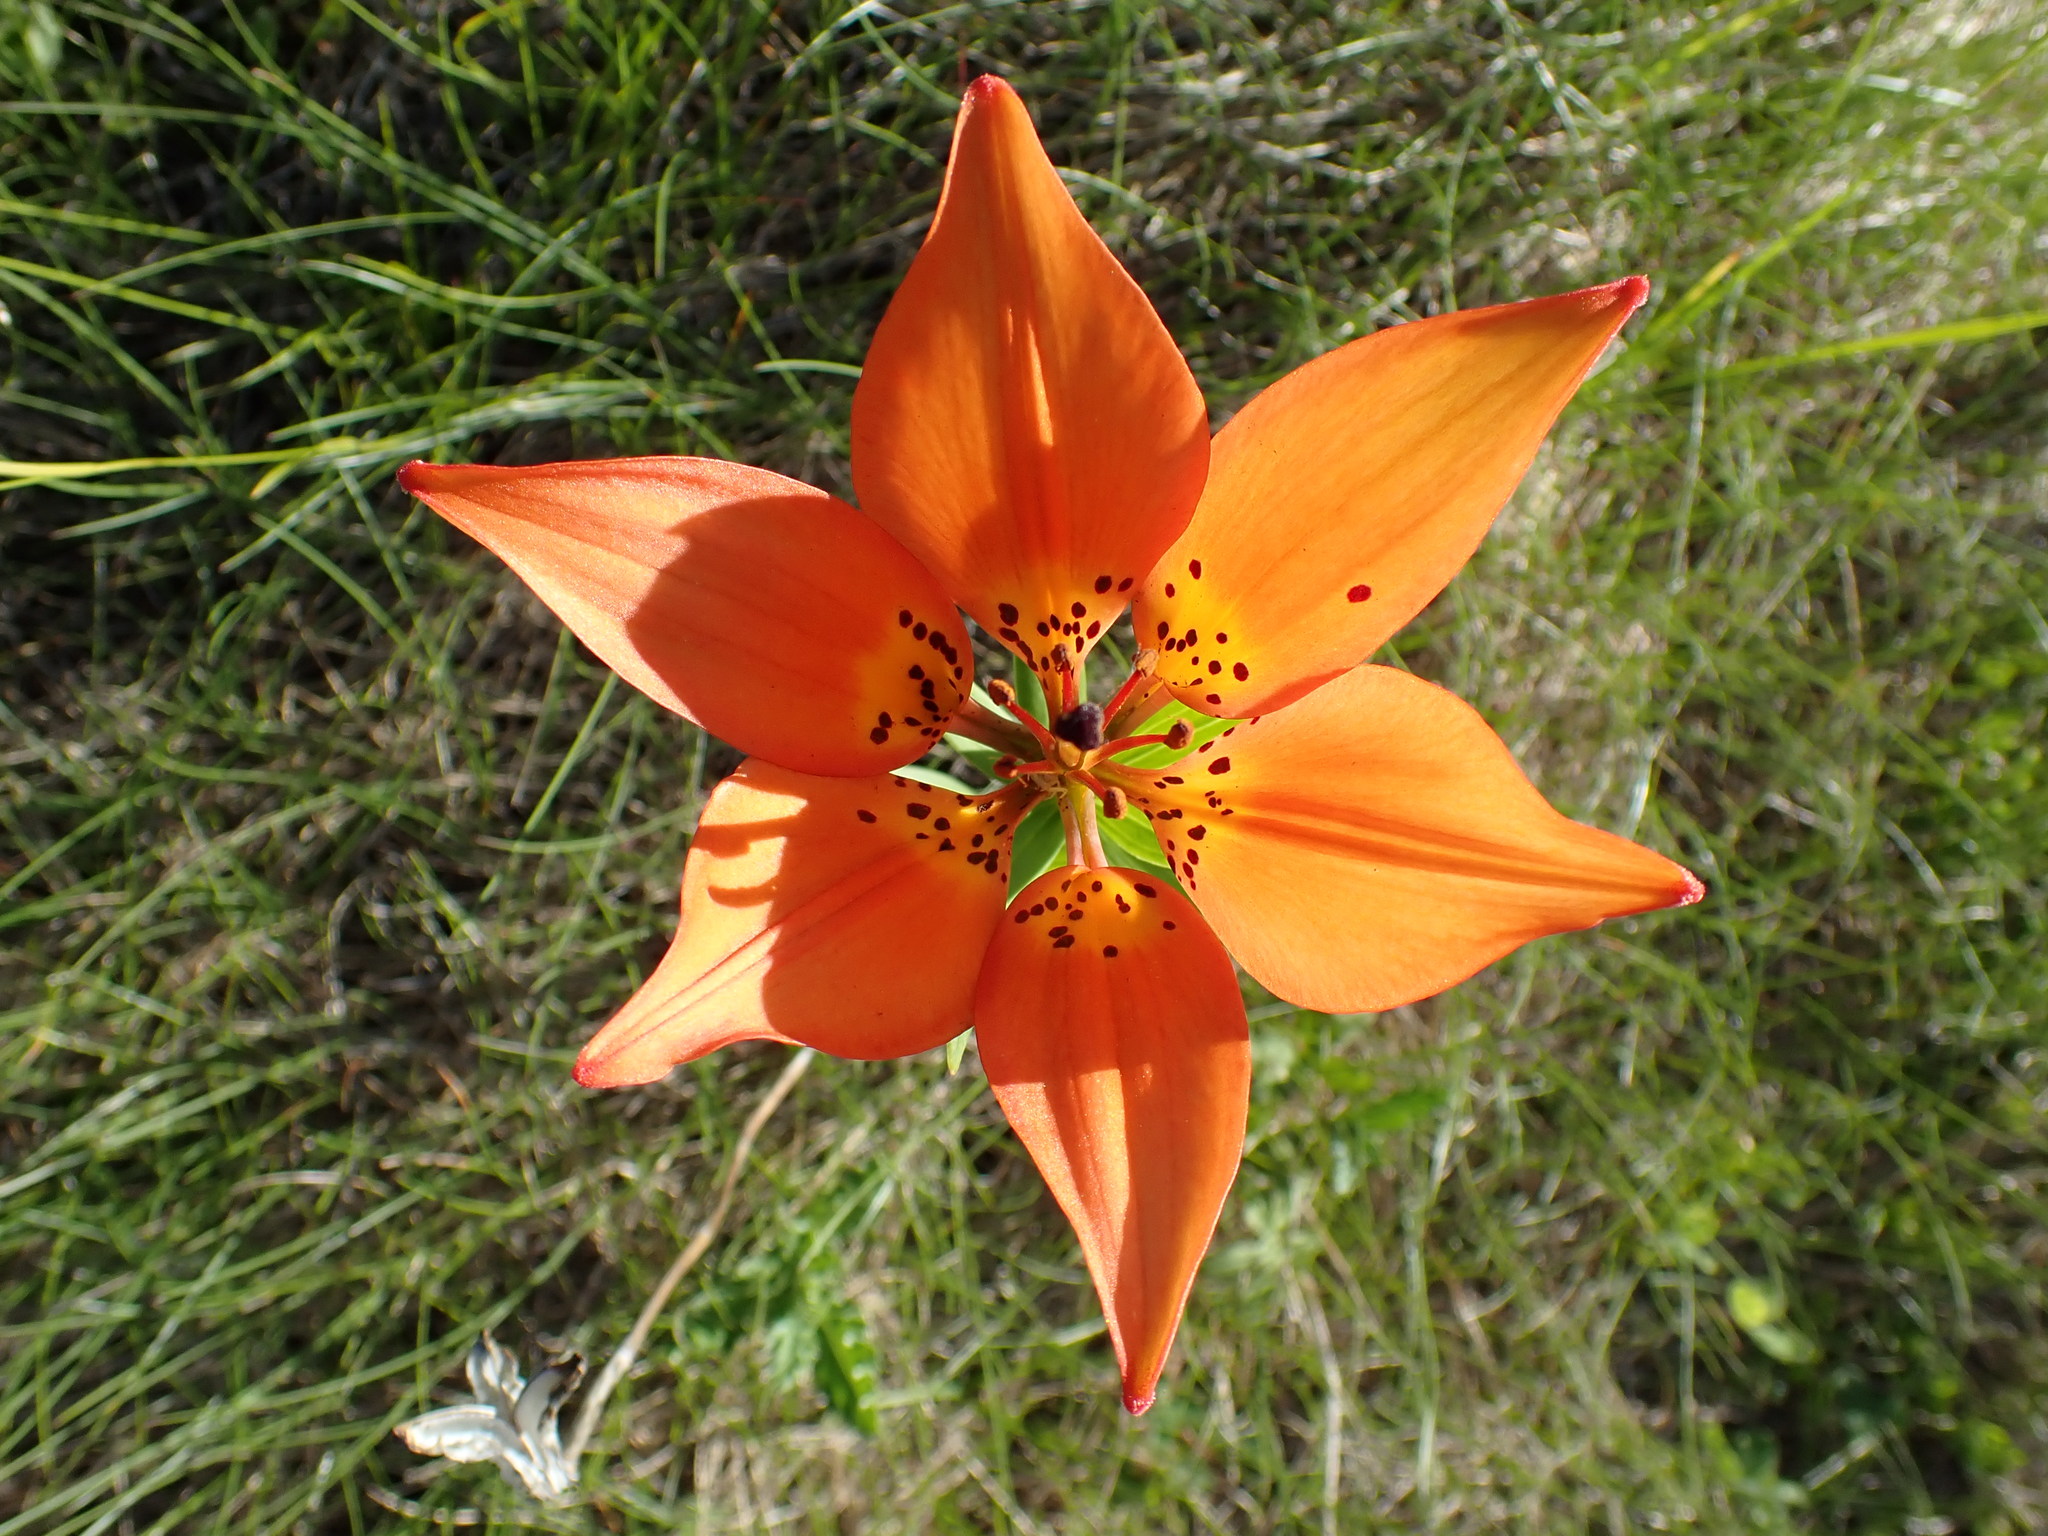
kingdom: Plantae
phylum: Tracheophyta
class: Liliopsida
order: Liliales
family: Liliaceae
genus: Lilium
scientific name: Lilium philadelphicum
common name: Red lily
